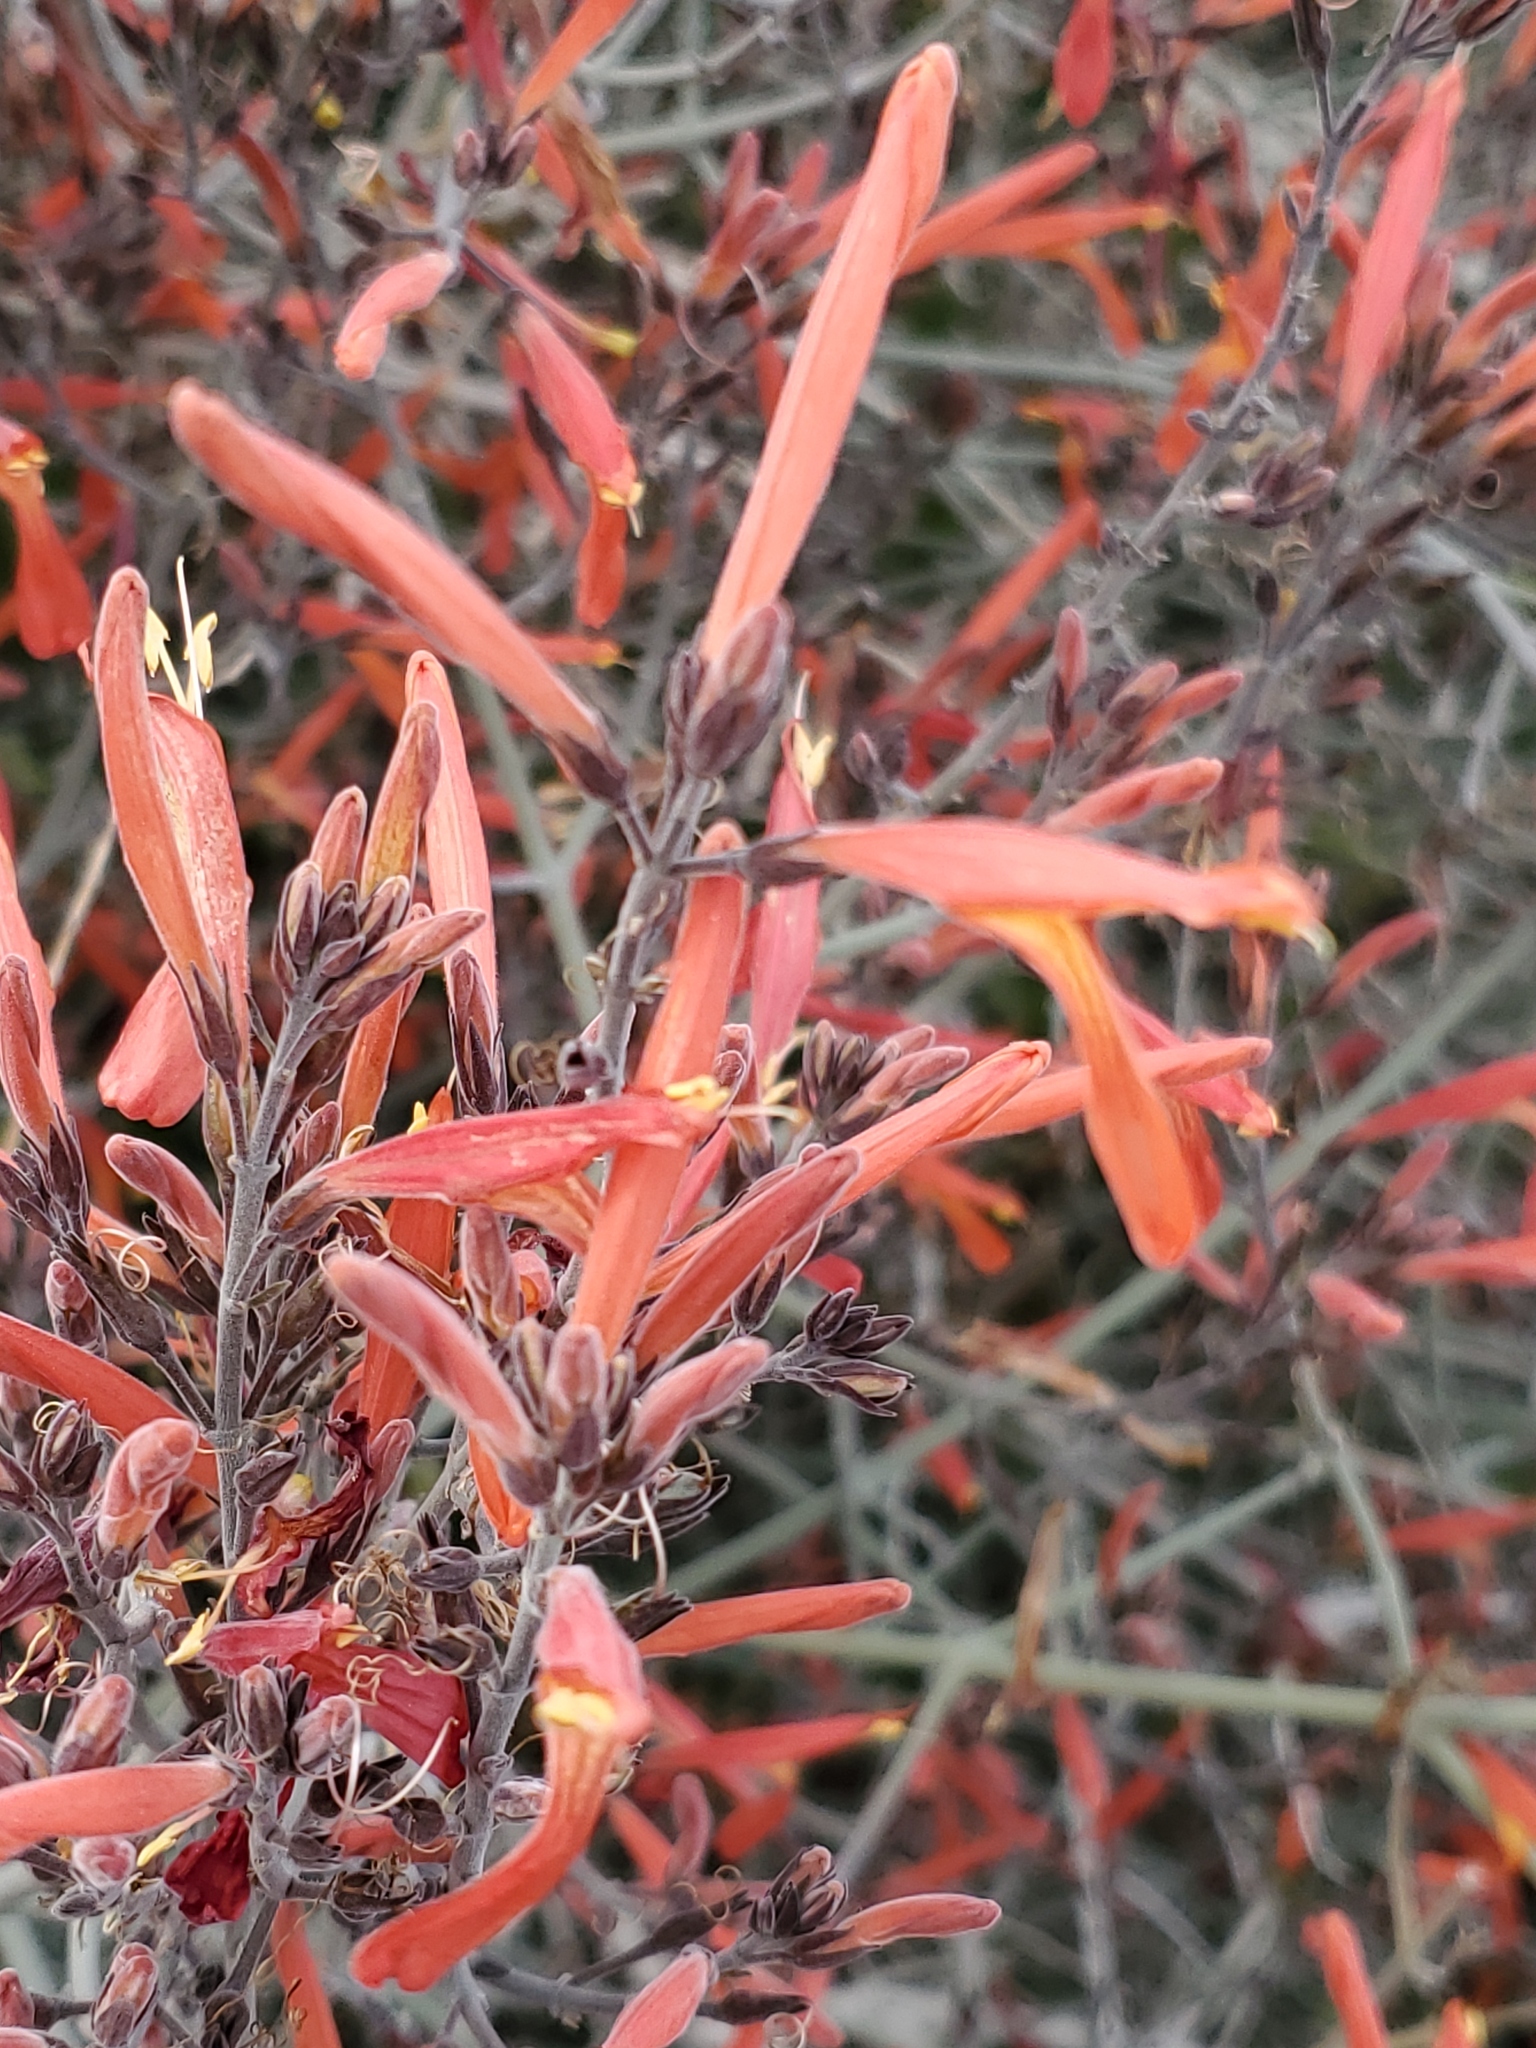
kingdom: Plantae
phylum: Tracheophyta
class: Magnoliopsida
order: Lamiales
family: Acanthaceae
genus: Justicia
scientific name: Justicia californica
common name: Chuparosa-honeysuckle
